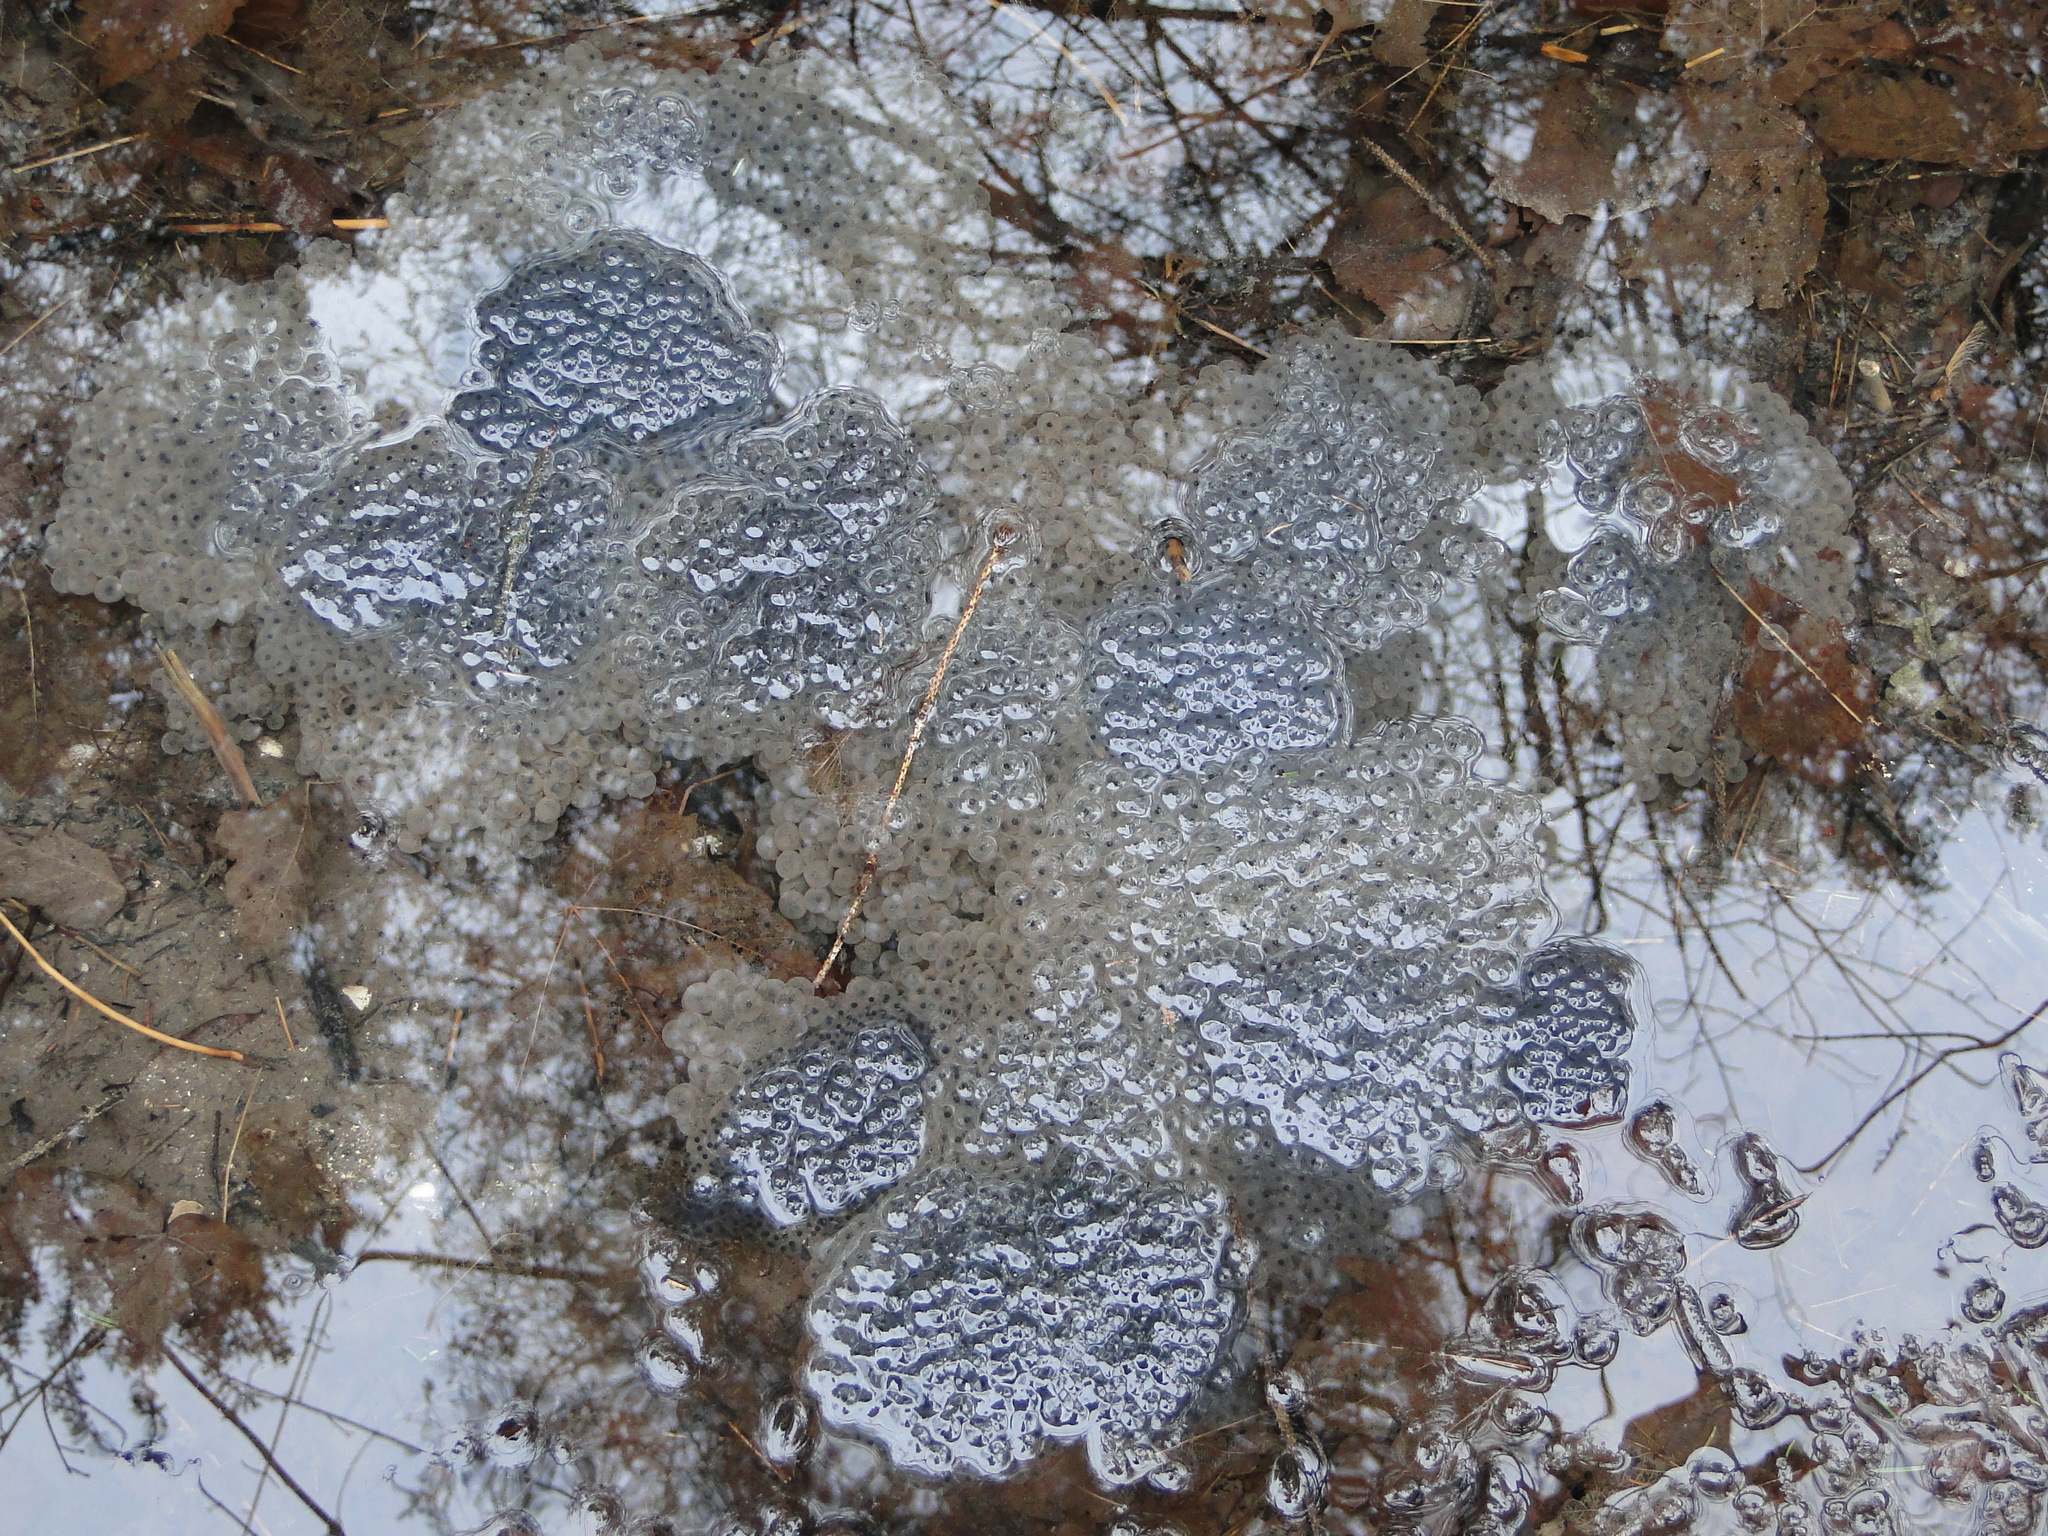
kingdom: Animalia
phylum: Chordata
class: Amphibia
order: Anura
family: Ranidae
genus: Rana
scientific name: Rana temporaria
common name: Common frog
